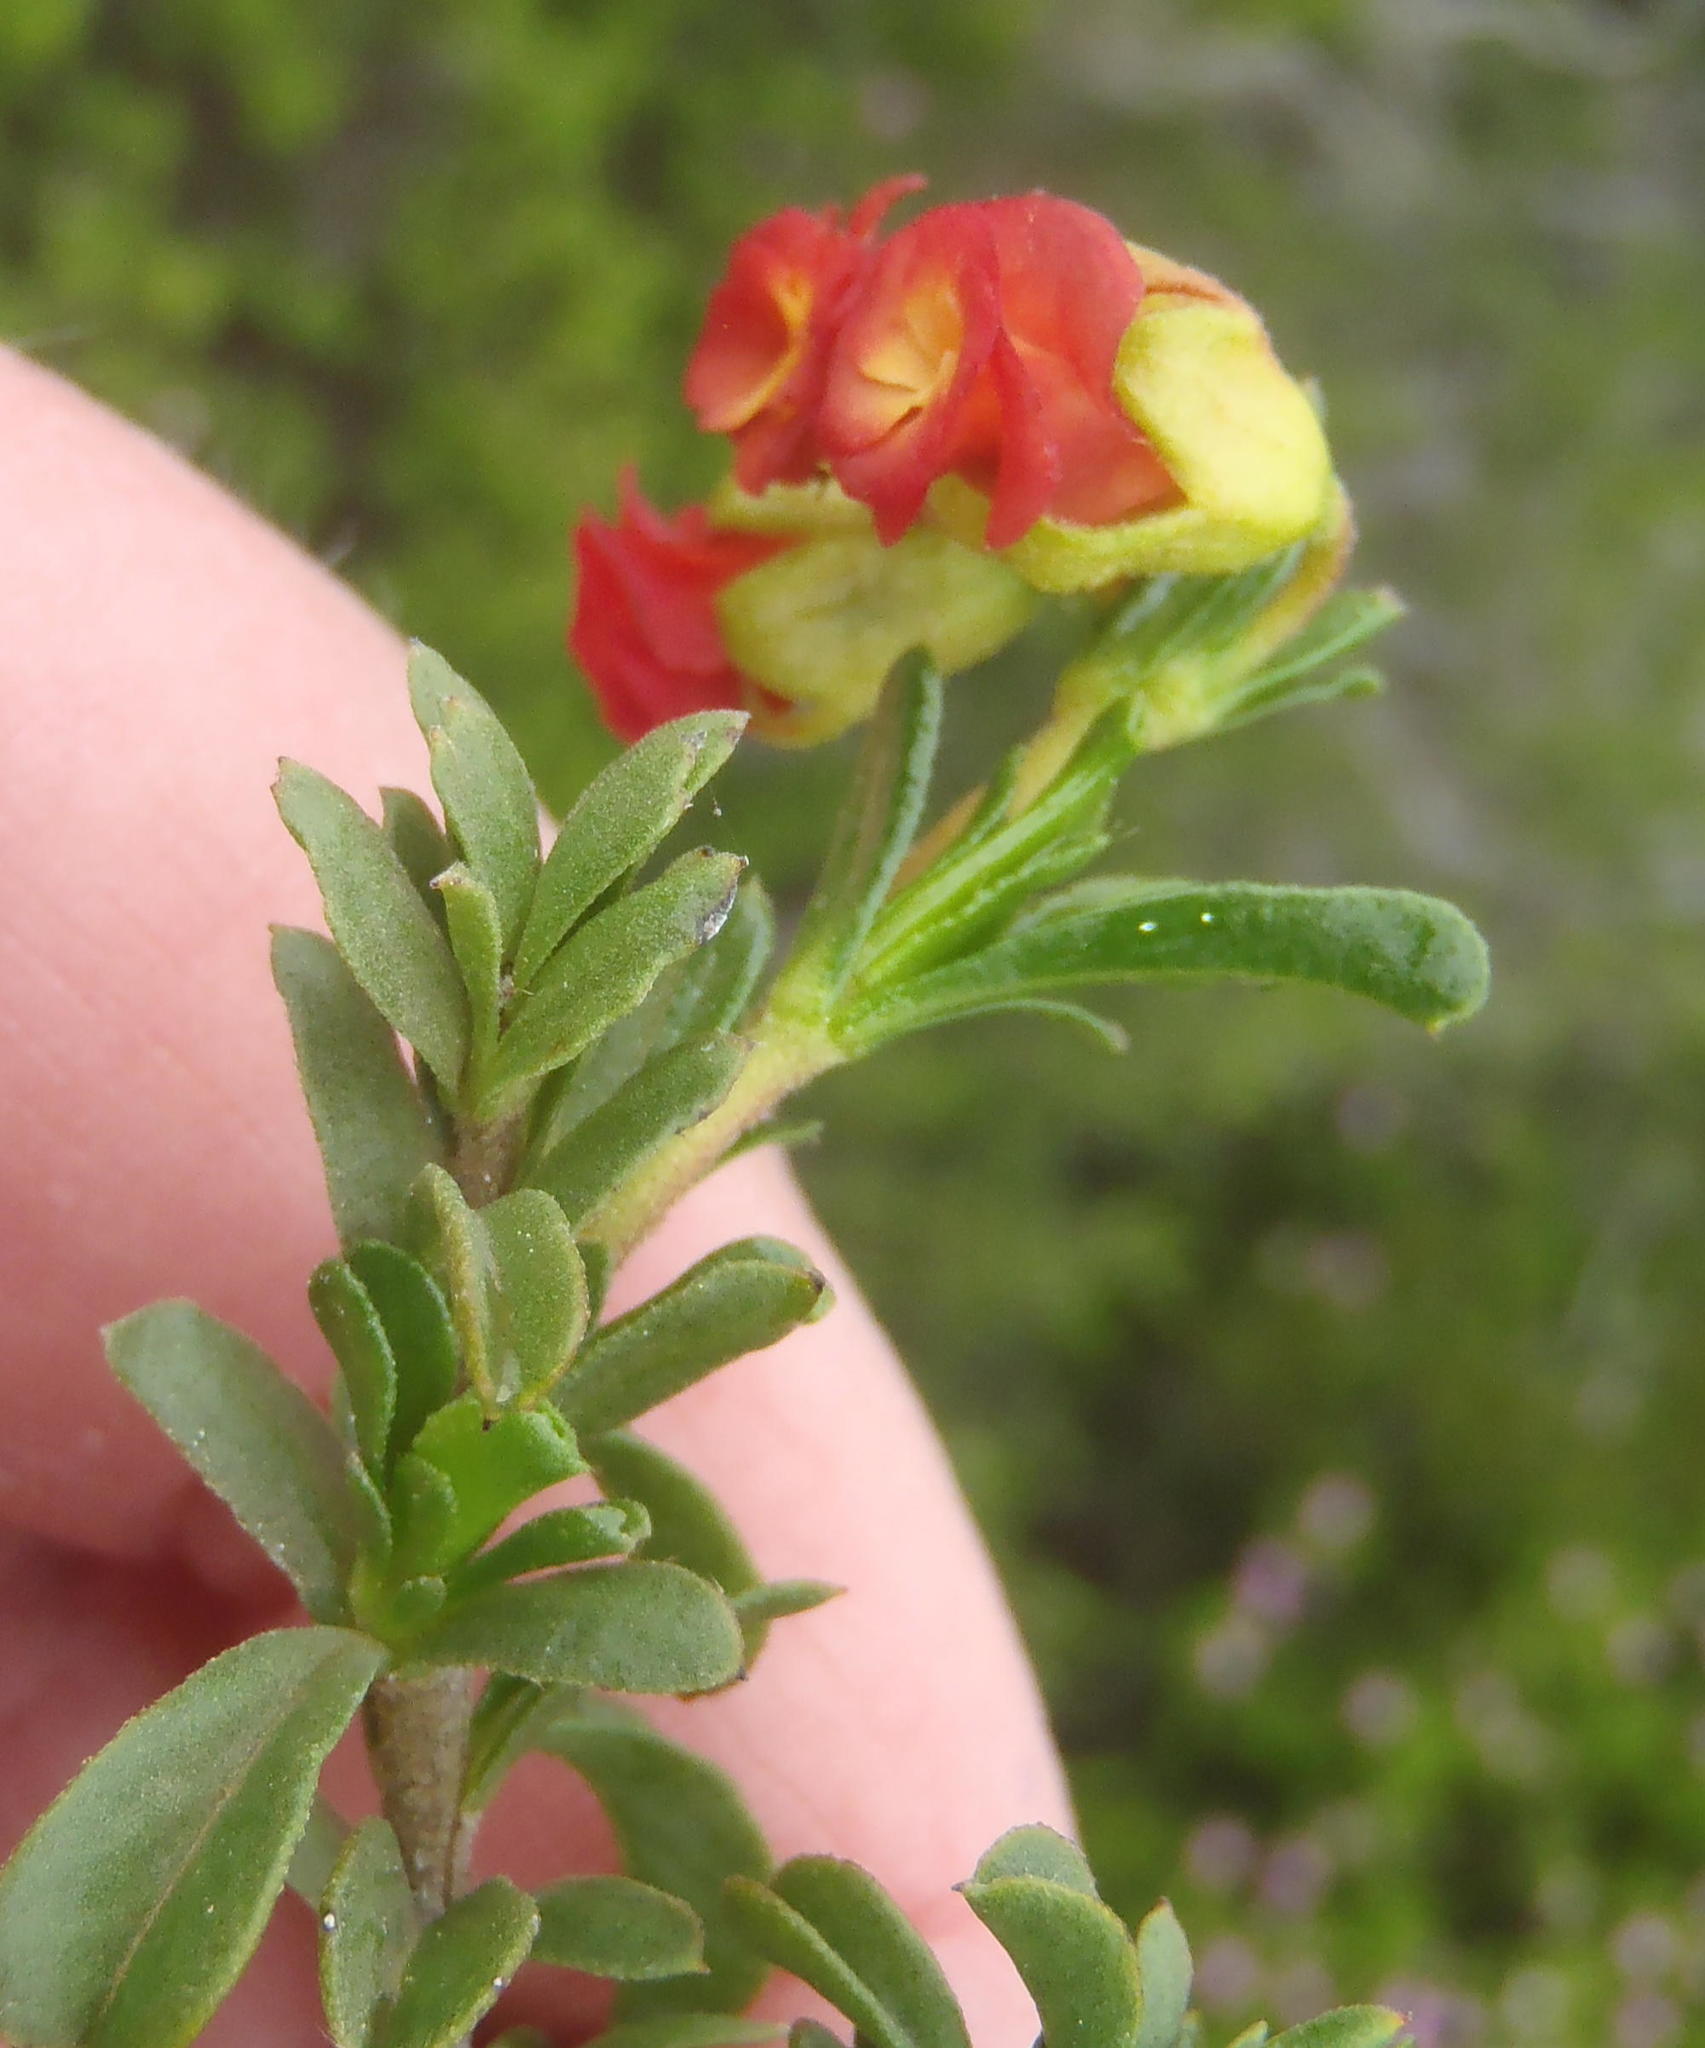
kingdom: Plantae
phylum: Tracheophyta
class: Magnoliopsida
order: Malvales
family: Malvaceae
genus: Hermannia
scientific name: Hermannia flammula
